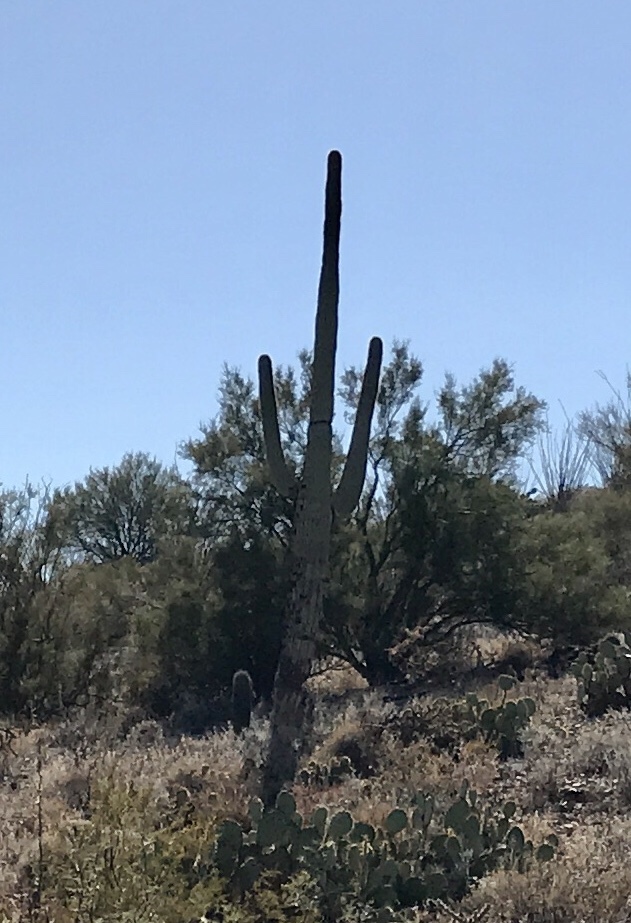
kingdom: Plantae
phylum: Tracheophyta
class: Magnoliopsida
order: Caryophyllales
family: Cactaceae
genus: Carnegiea
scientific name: Carnegiea gigantea
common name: Saguaro
